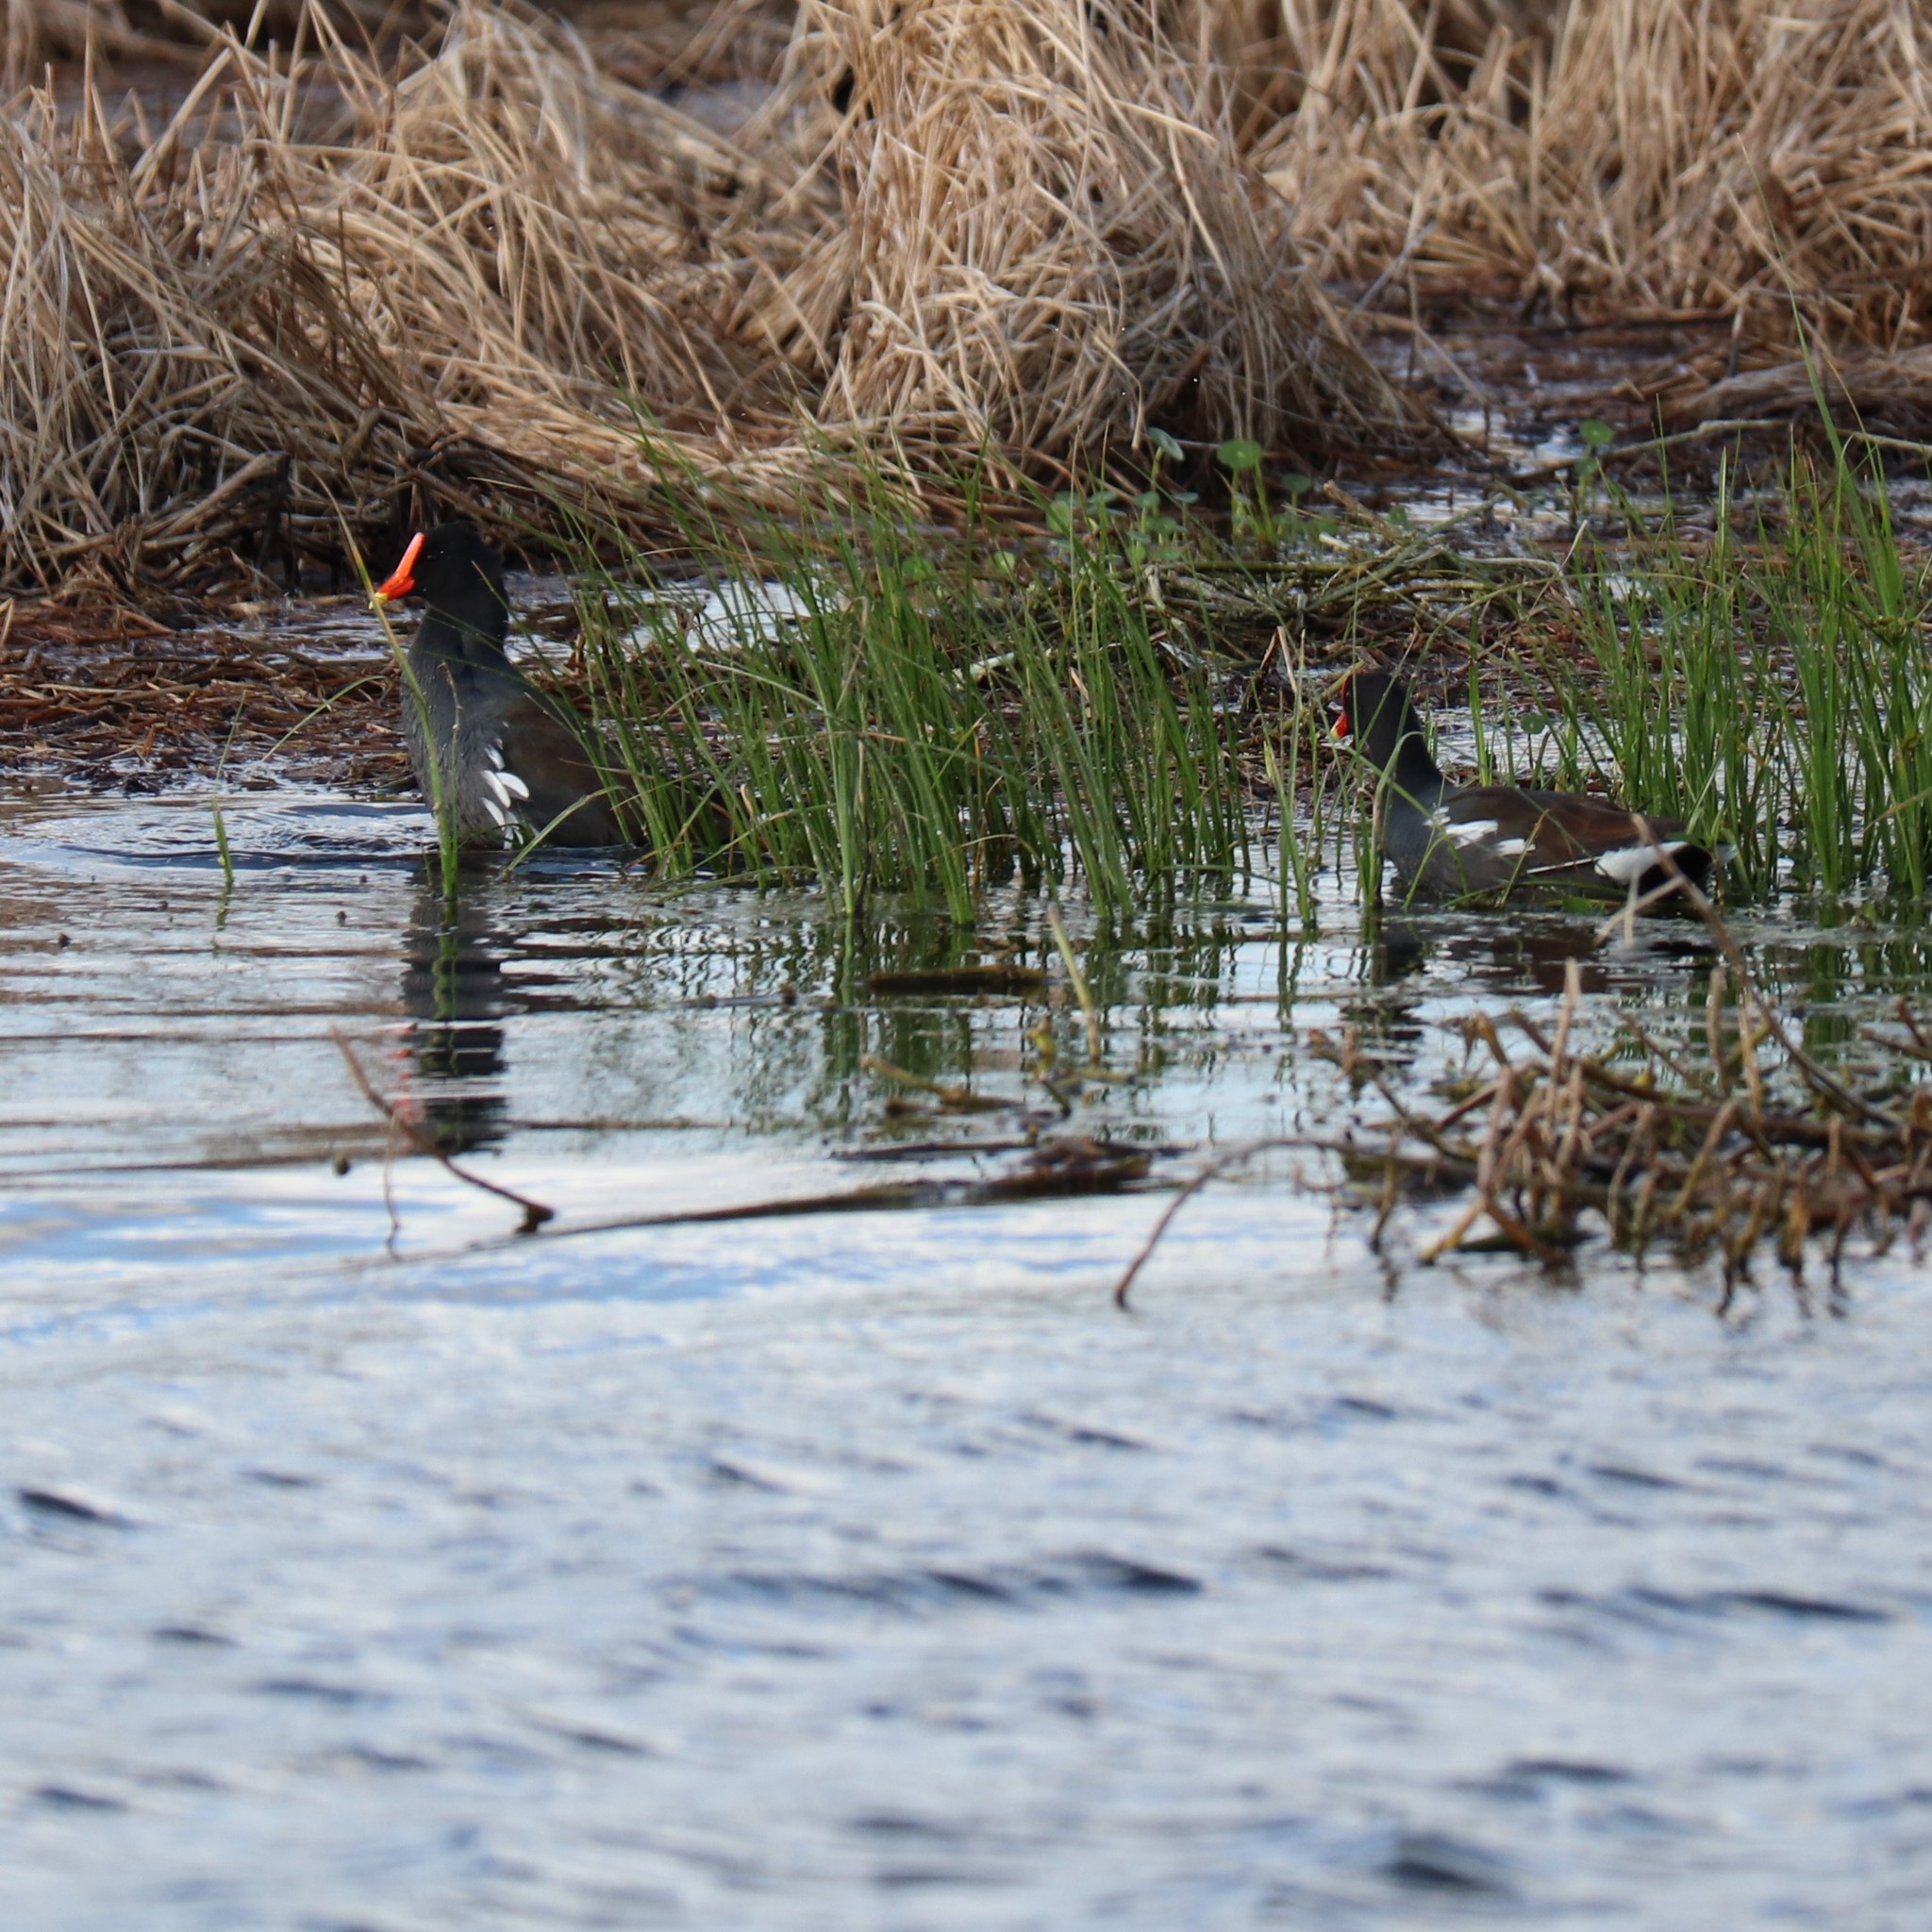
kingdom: Animalia
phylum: Chordata
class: Aves
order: Gruiformes
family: Rallidae
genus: Gallinula
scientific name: Gallinula chloropus
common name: Common moorhen
